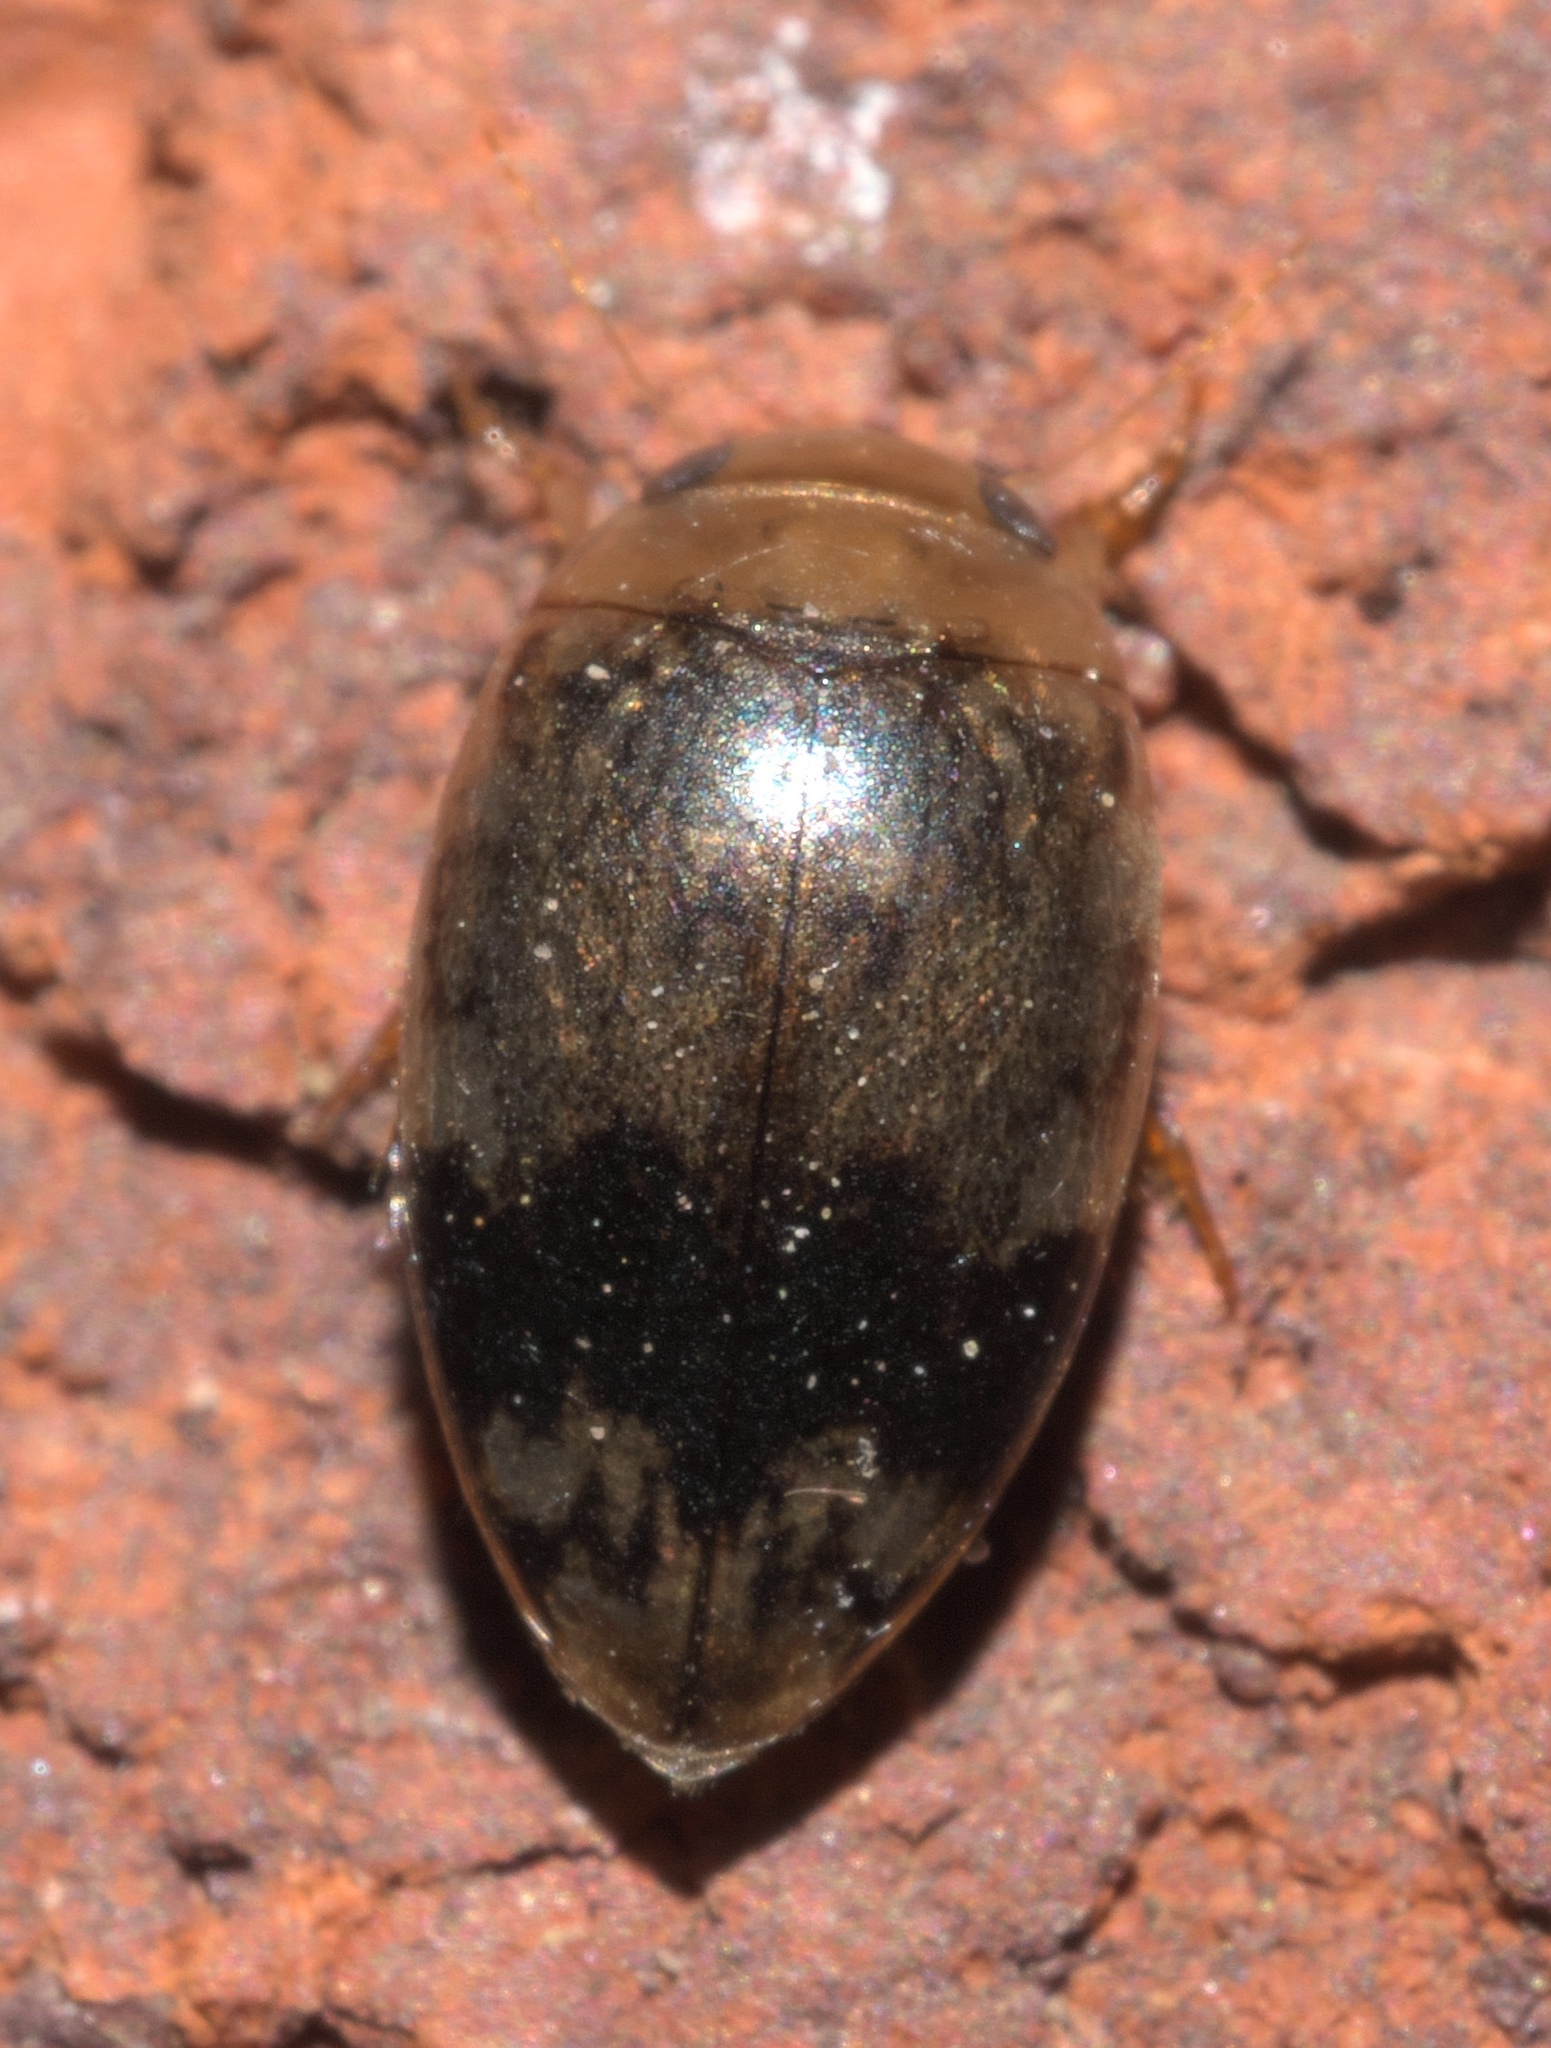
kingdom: Animalia
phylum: Arthropoda
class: Insecta
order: Coleoptera
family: Dytiscidae
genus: Laccophilus
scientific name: Laccophilus fasciatus
